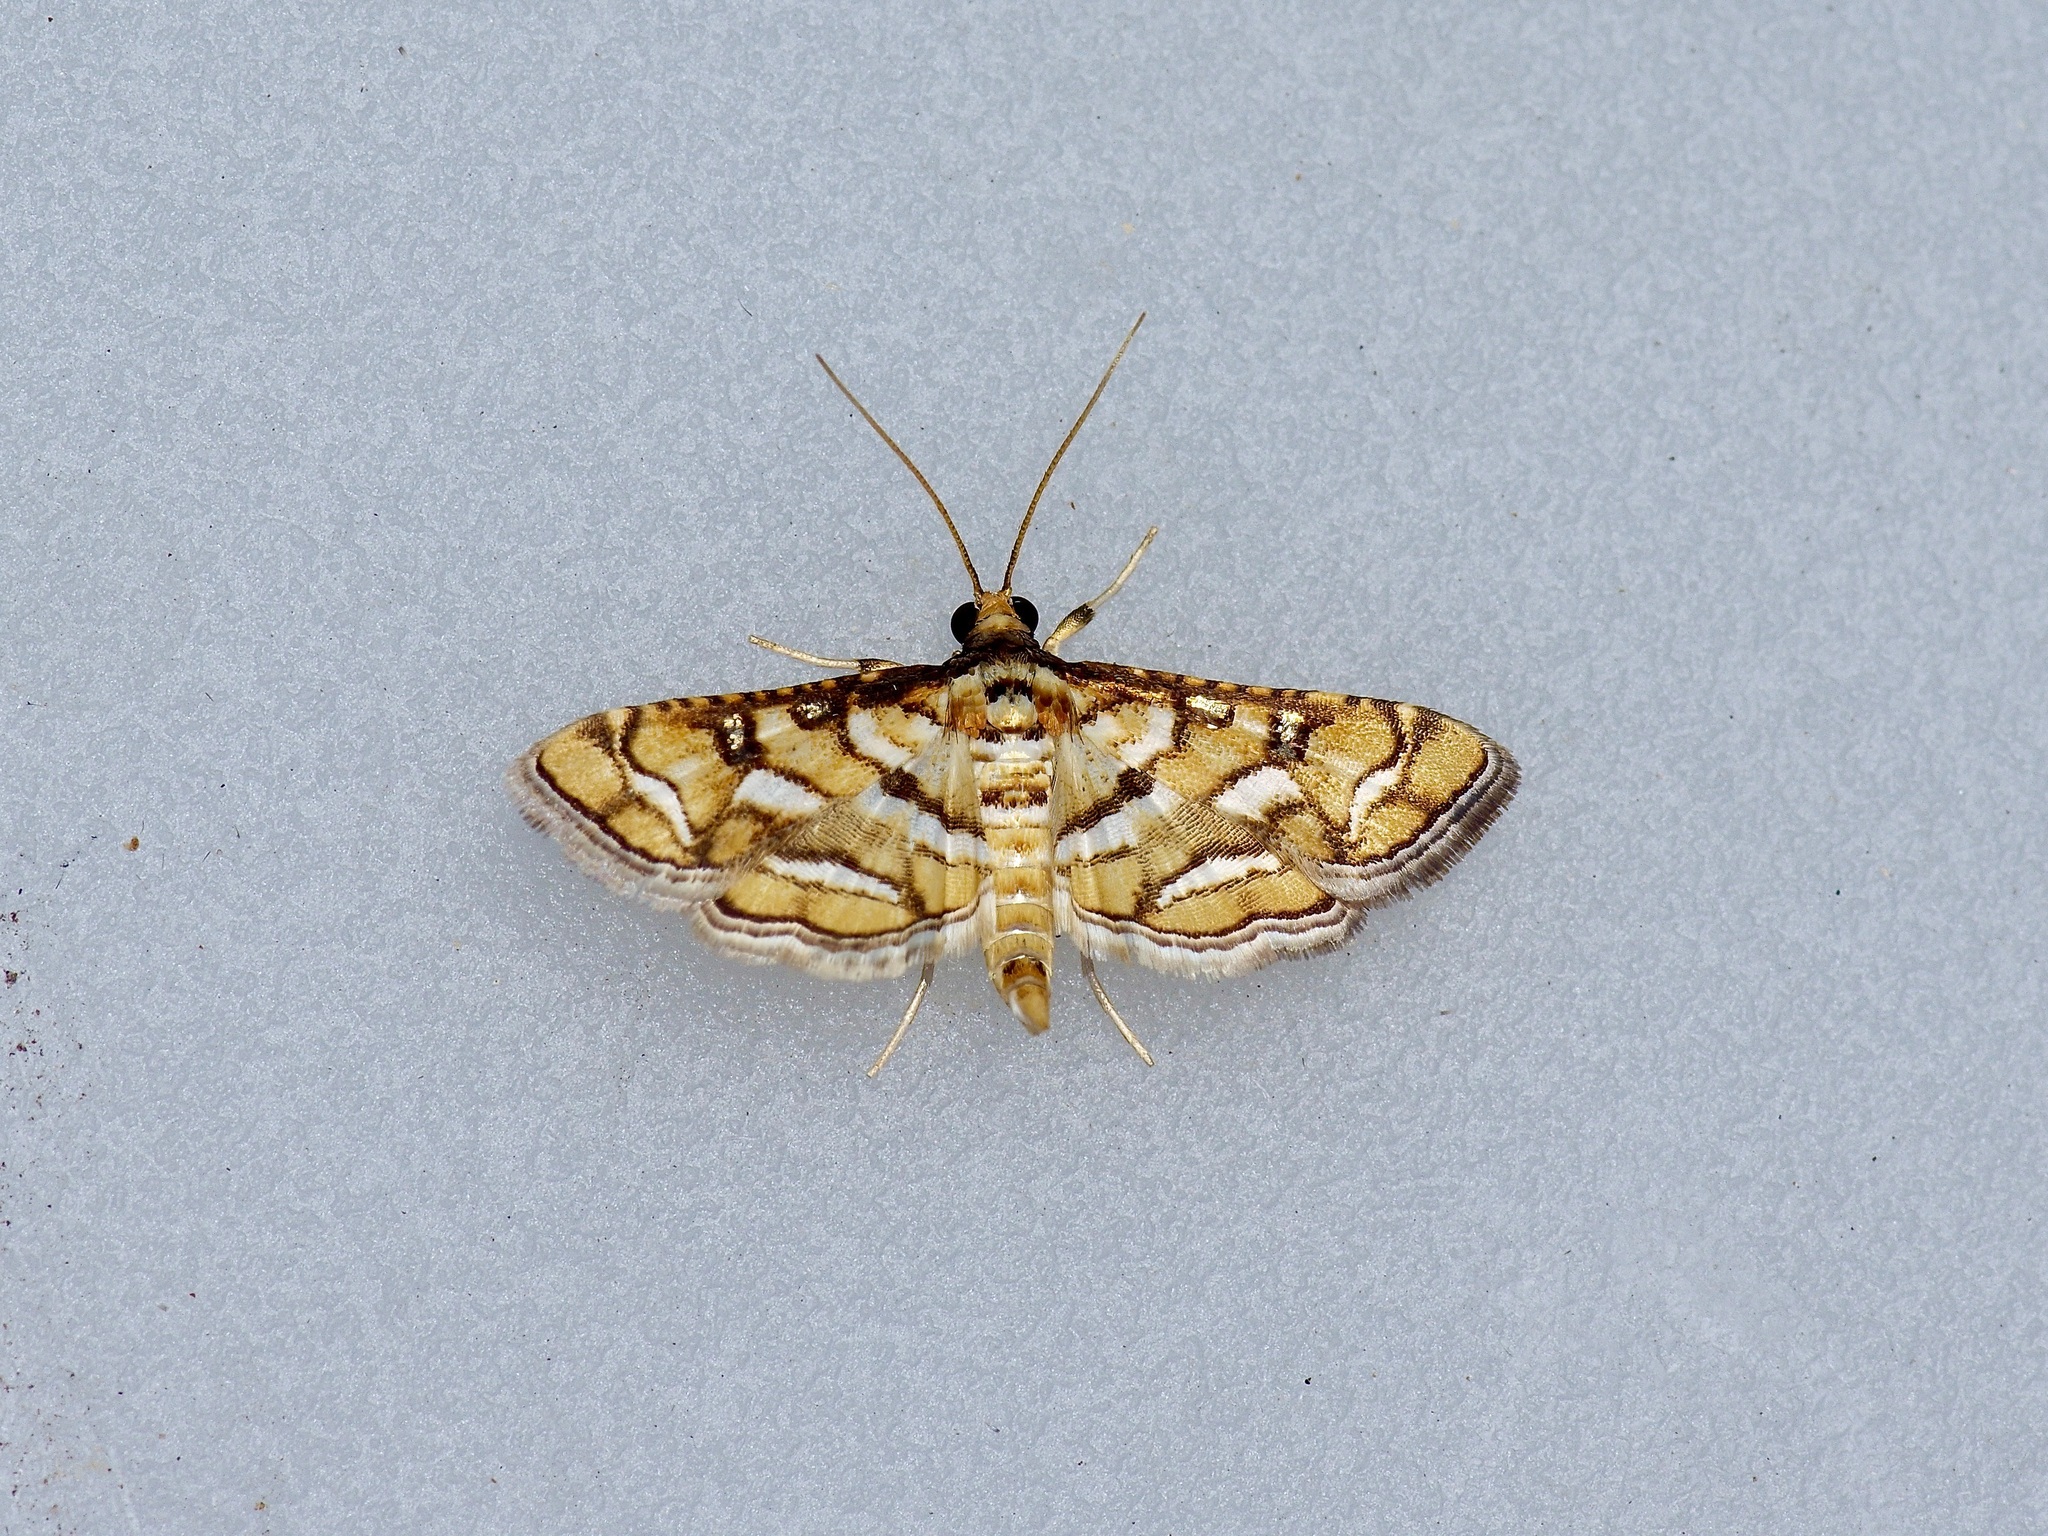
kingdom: Animalia
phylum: Arthropoda
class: Insecta
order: Lepidoptera
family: Crambidae
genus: Hileithia
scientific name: Hileithia magualis
